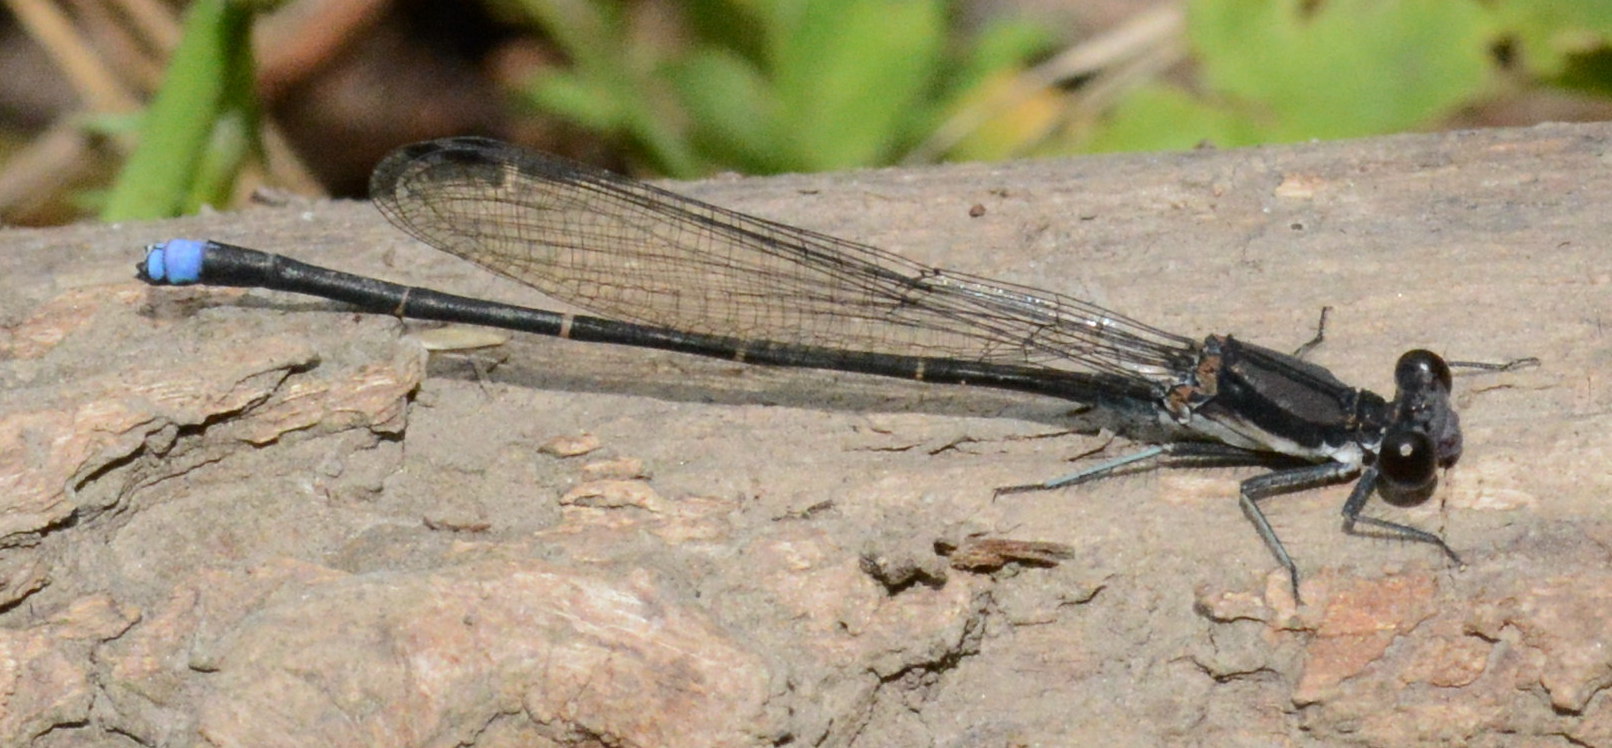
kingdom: Animalia
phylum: Arthropoda
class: Insecta
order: Odonata
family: Coenagrionidae
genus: Argia
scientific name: Argia tibialis
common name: Blue-tipped dancer
